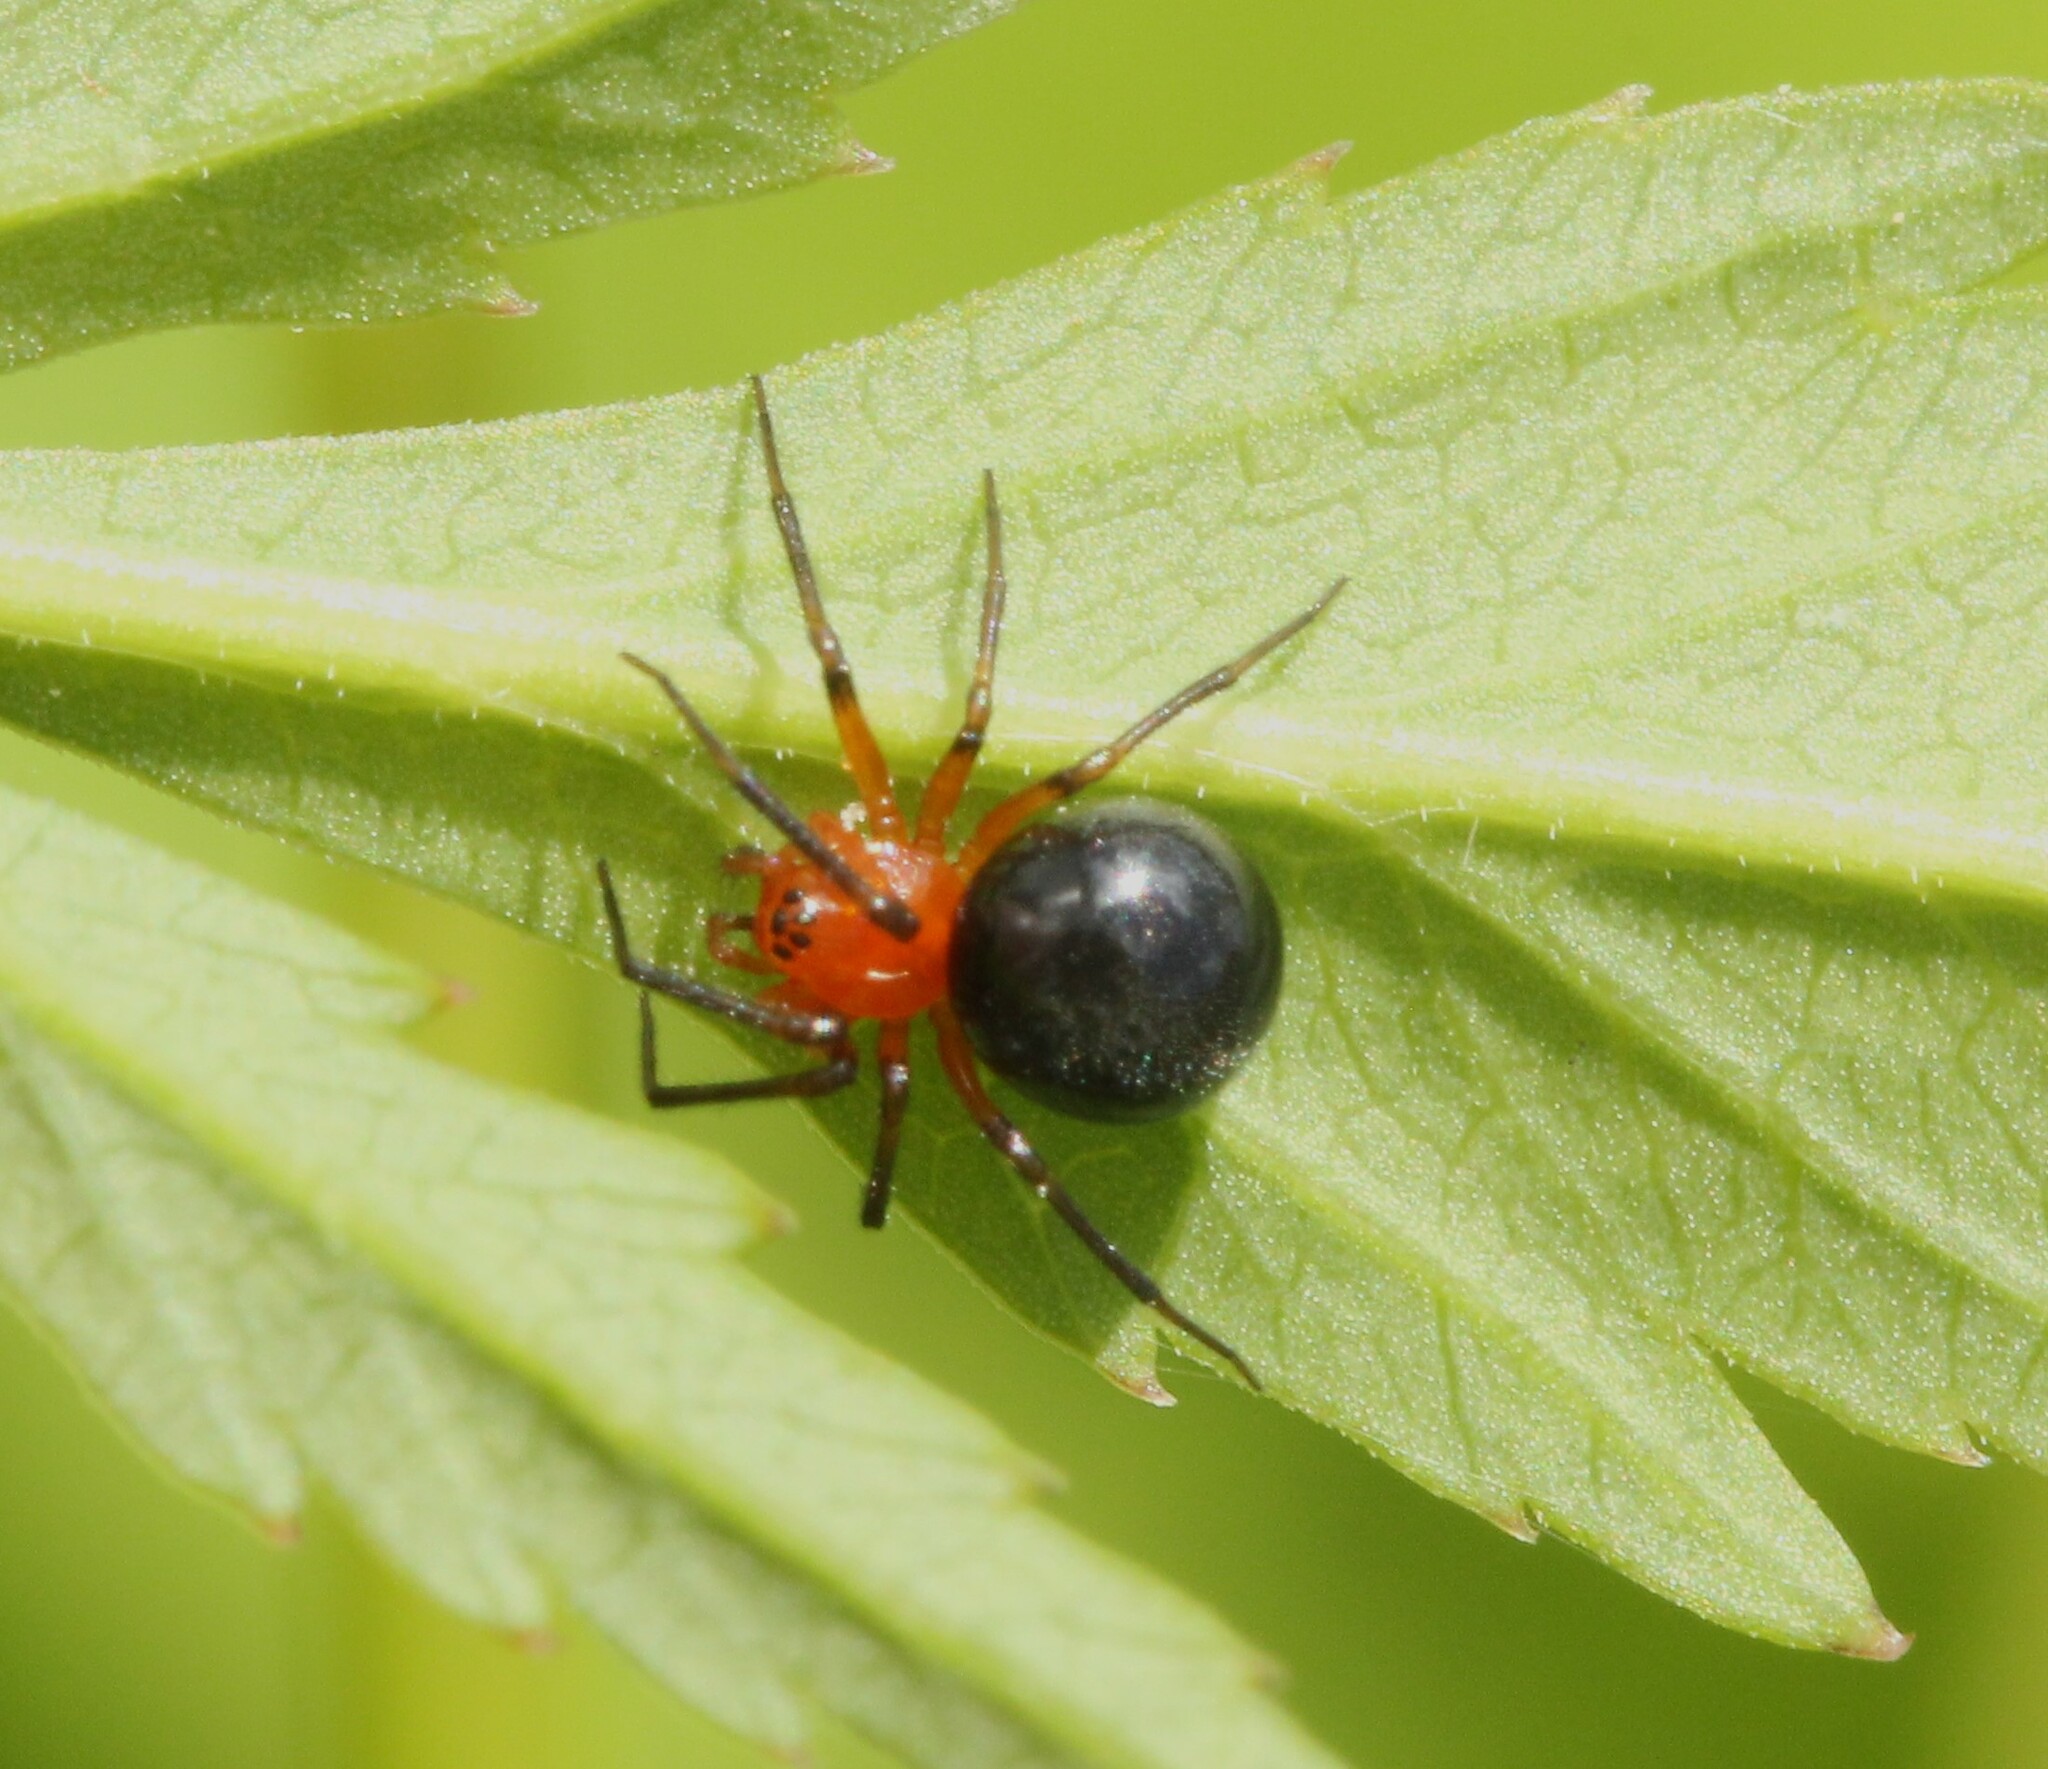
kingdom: Animalia
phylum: Arthropoda
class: Arachnida
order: Araneae
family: Linyphiidae
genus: Hypselistes
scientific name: Hypselistes florens
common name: Peatland sheetweb weaver
